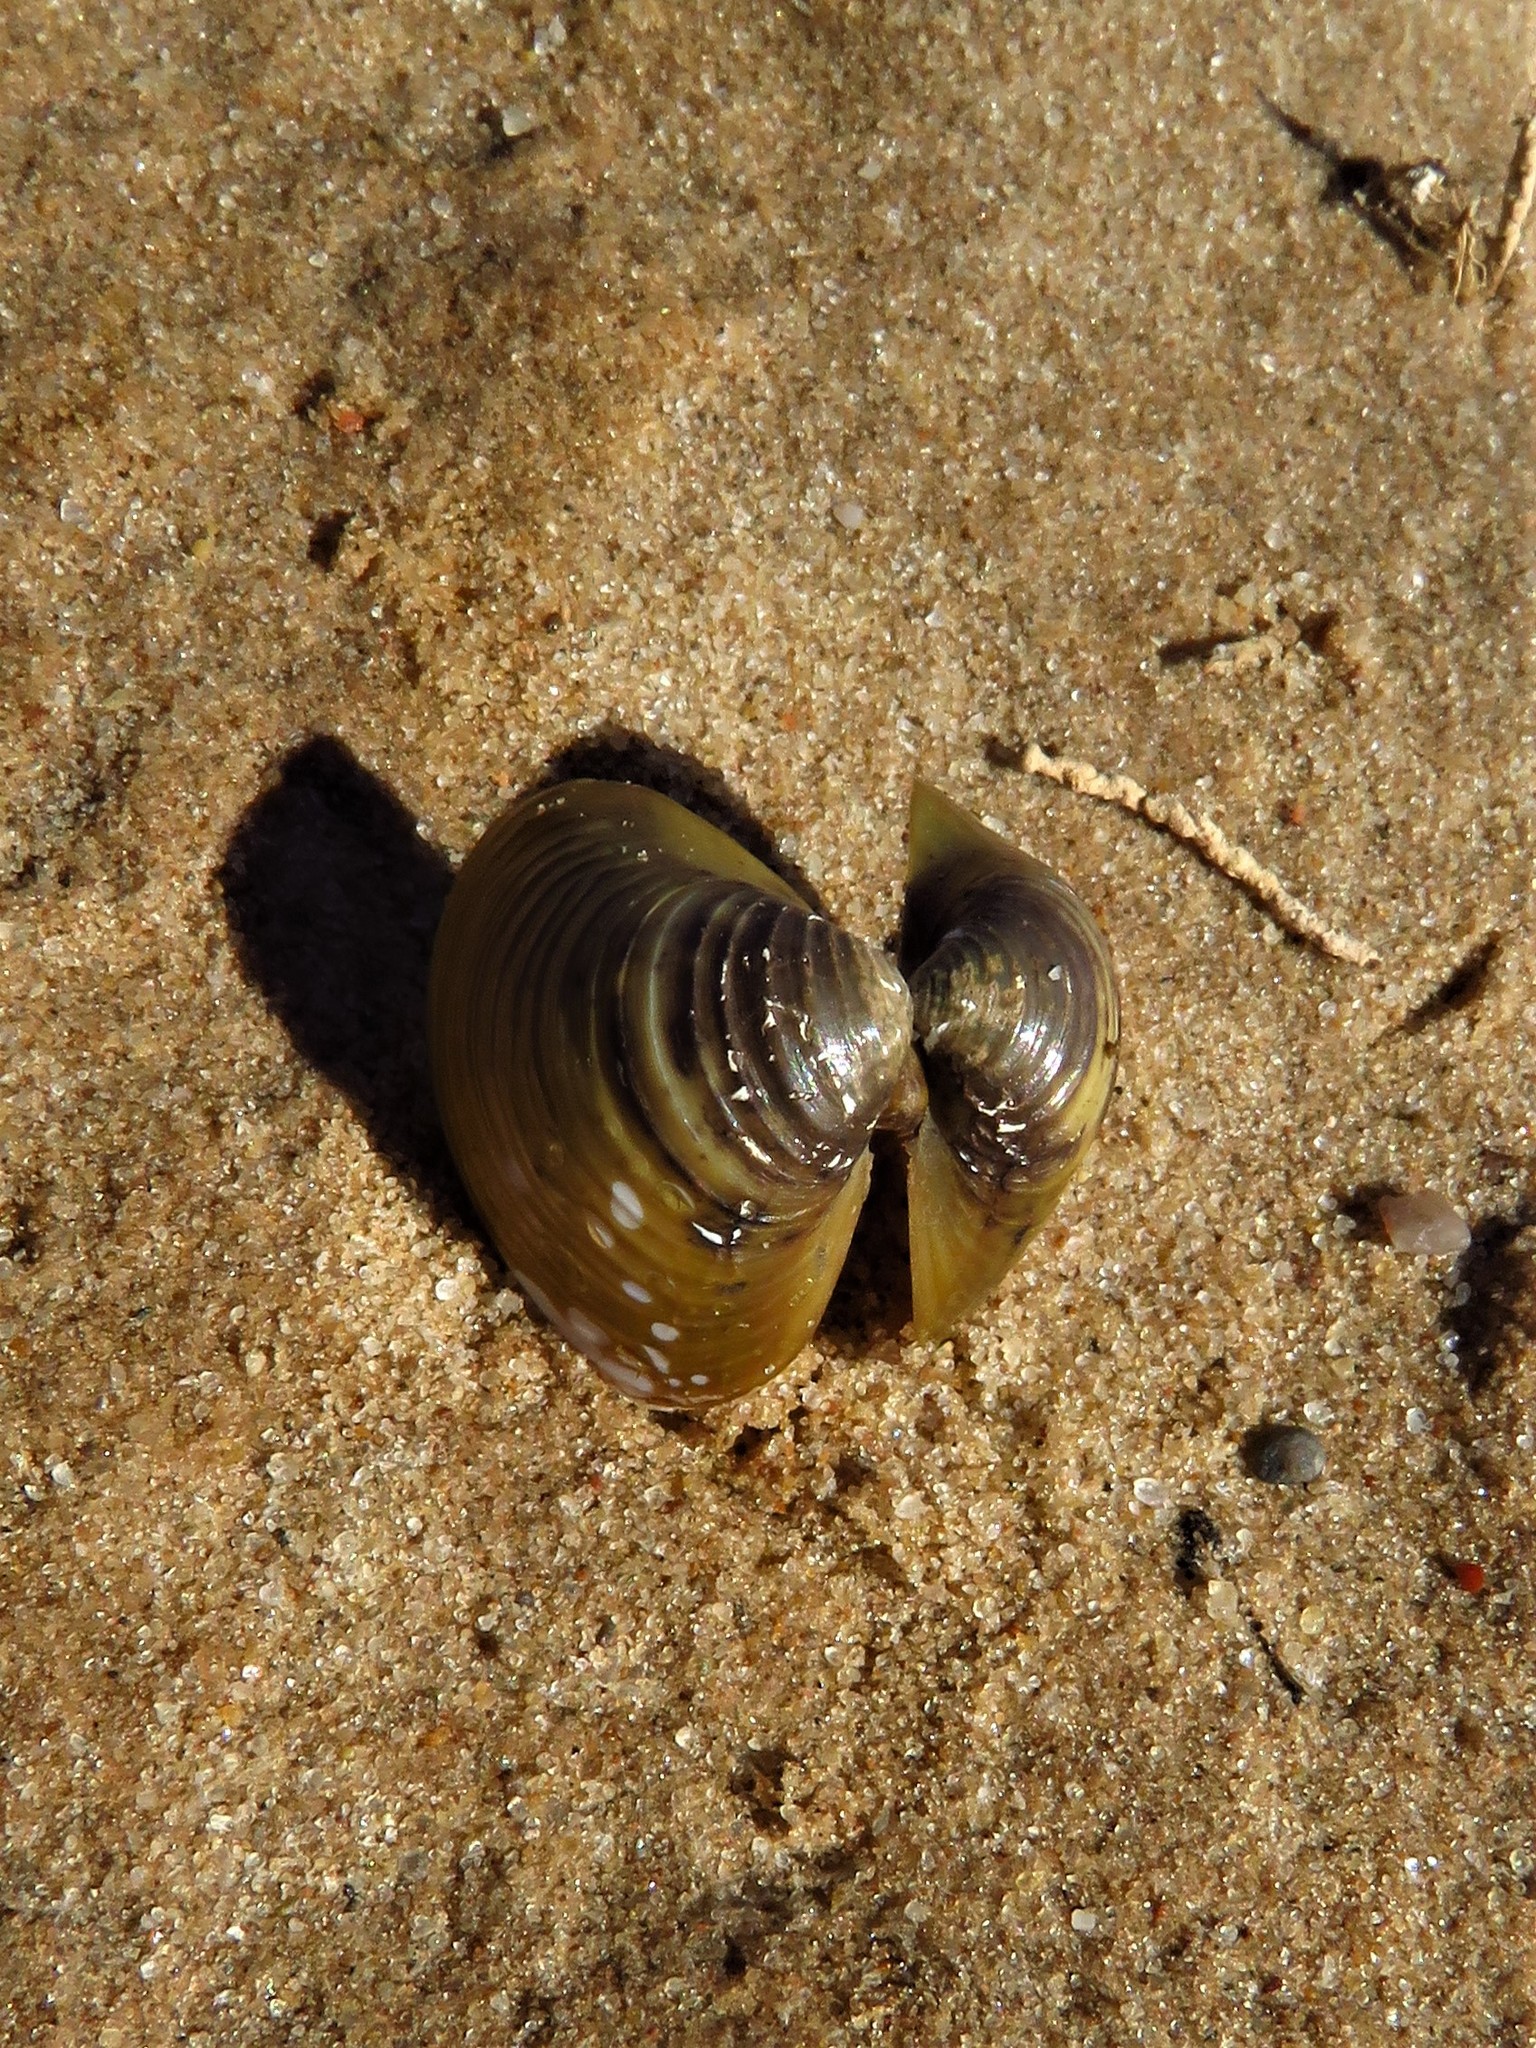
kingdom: Animalia
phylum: Mollusca
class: Bivalvia
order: Venerida
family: Cyrenidae
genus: Corbicula
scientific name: Corbicula fluminea
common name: Asian clam
